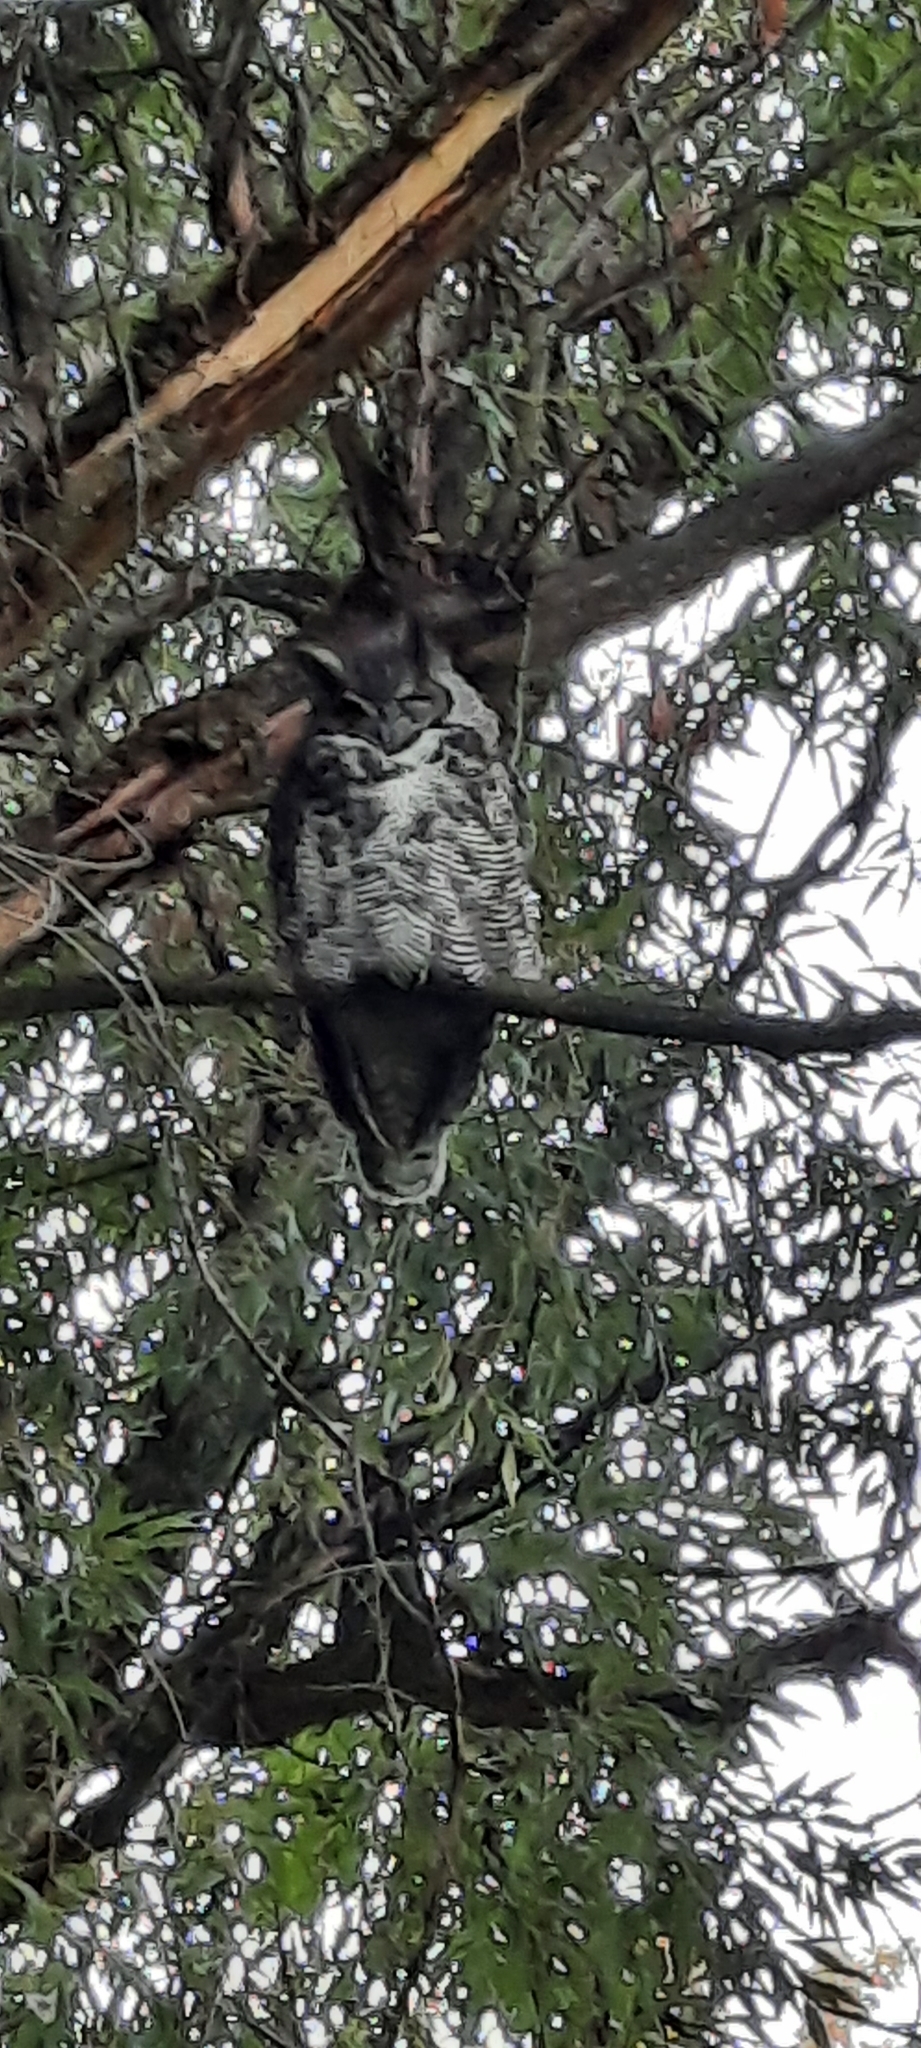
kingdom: Animalia
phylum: Chordata
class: Aves
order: Strigiformes
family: Strigidae
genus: Bubo
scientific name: Bubo virginianus
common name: Great horned owl
